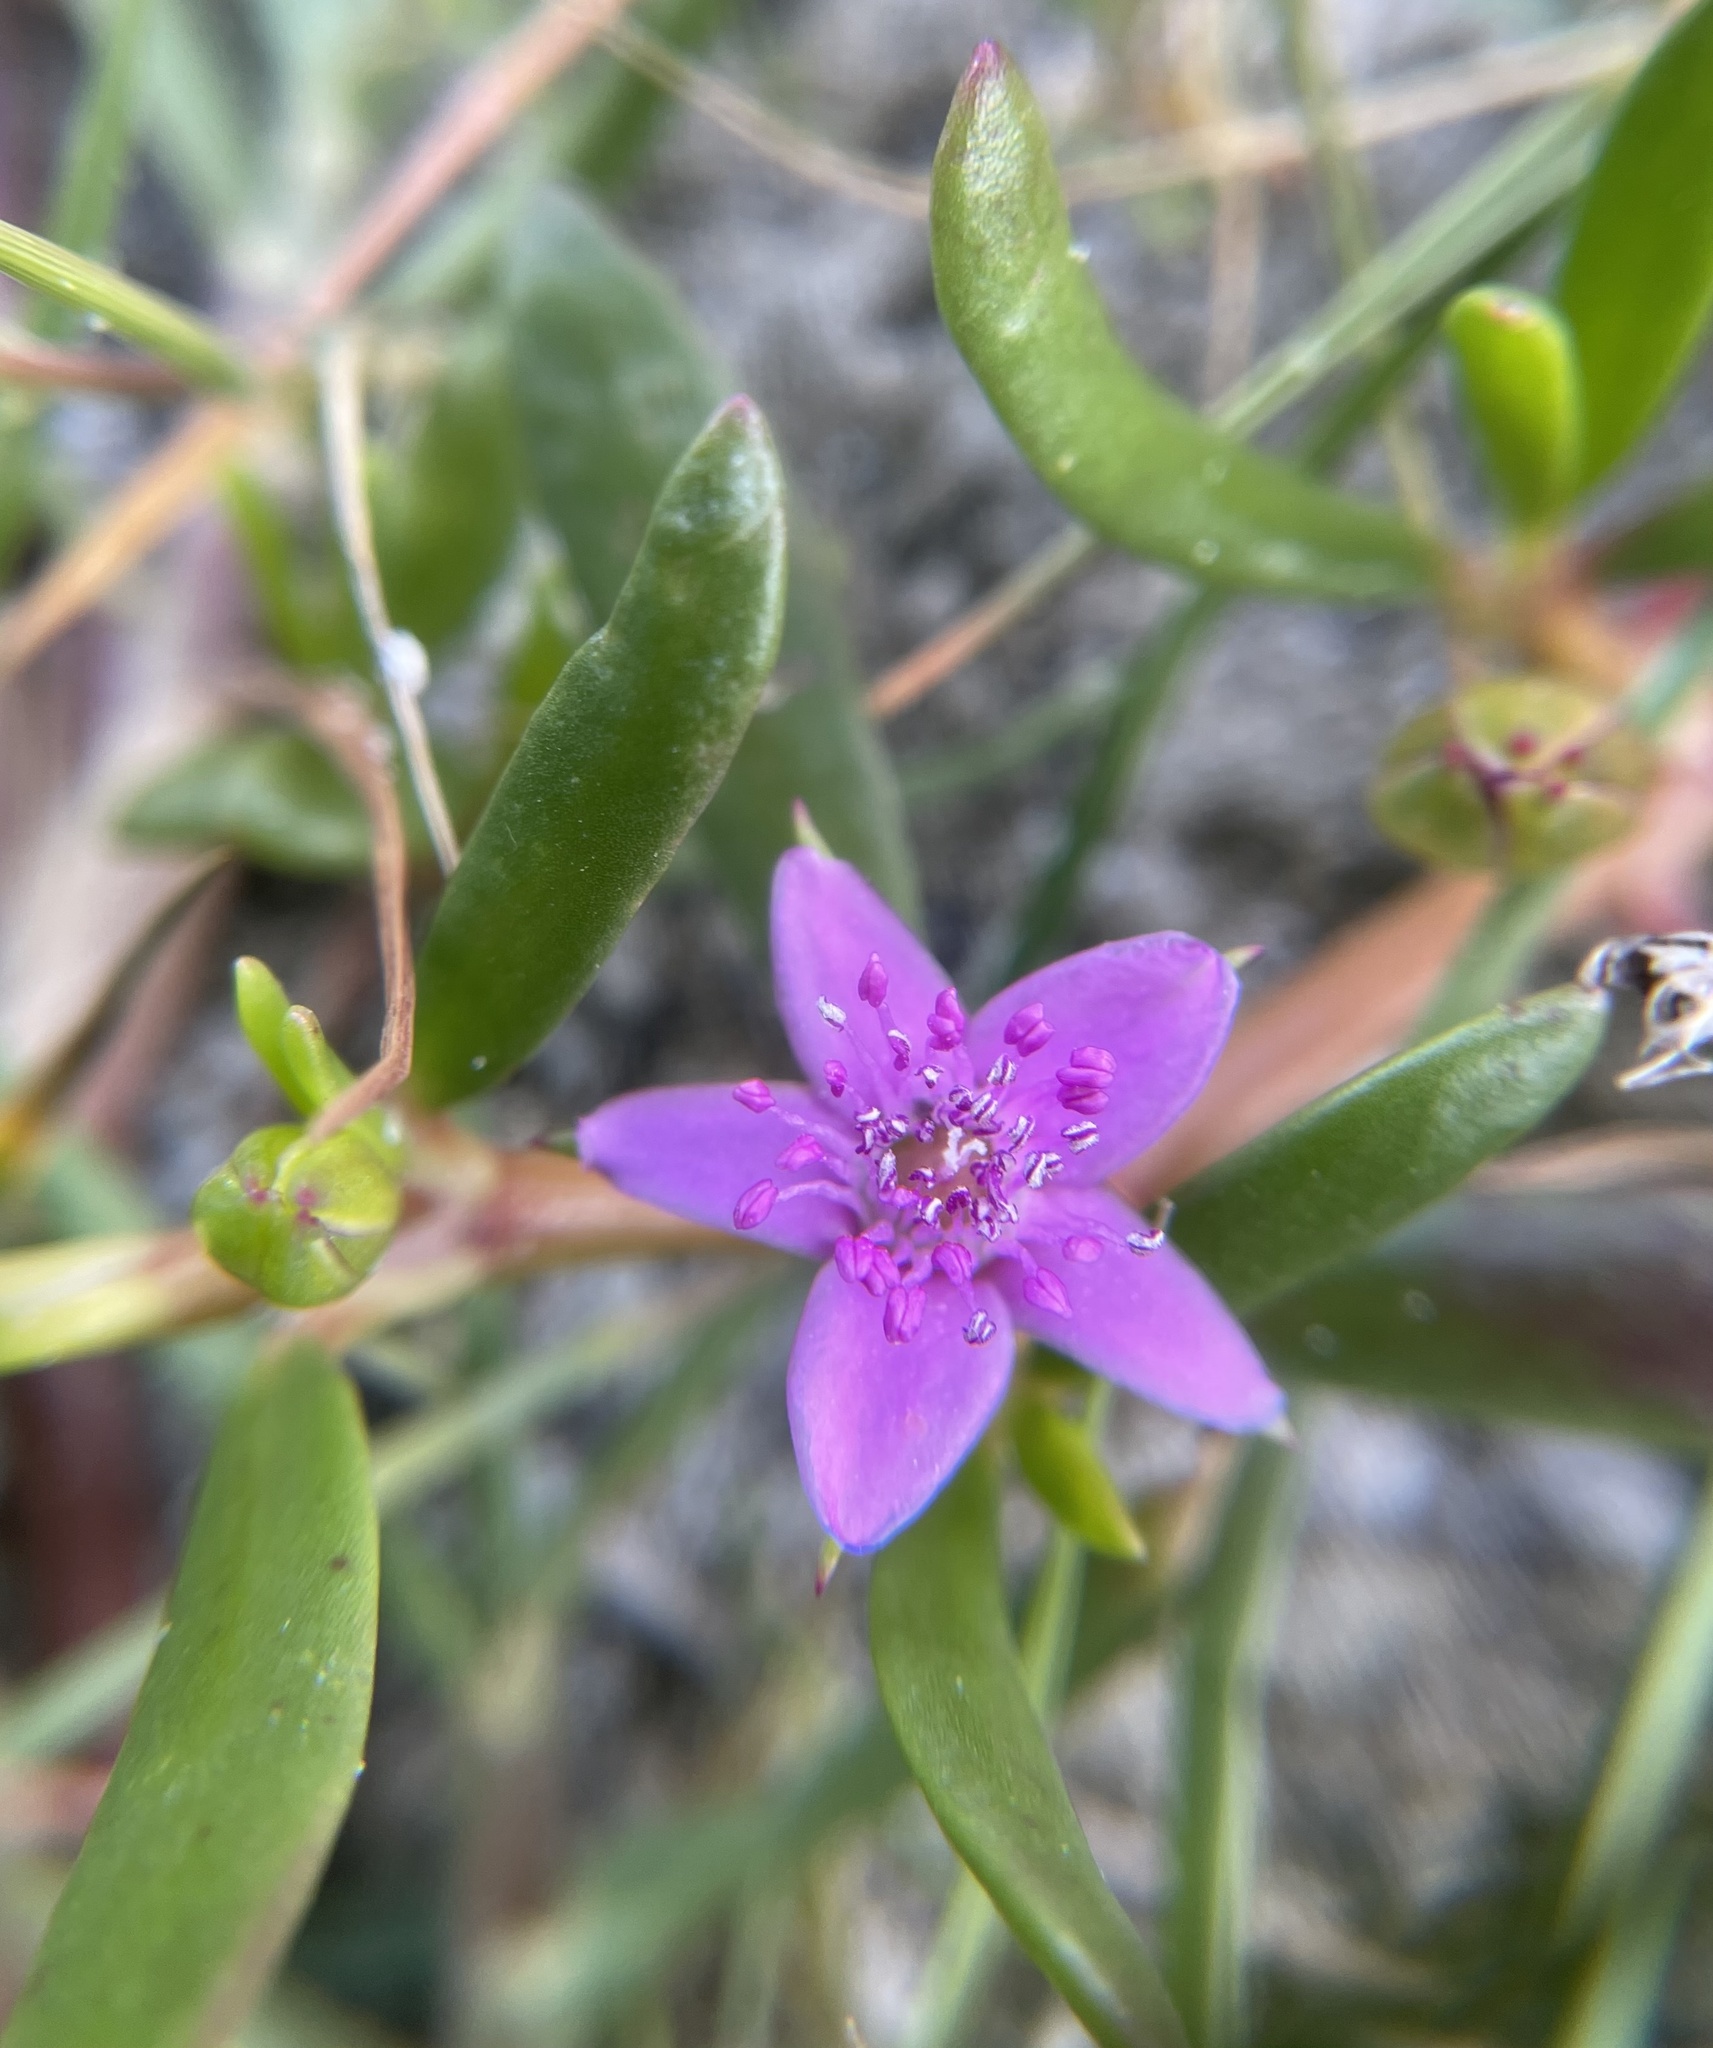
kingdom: Plantae
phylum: Tracheophyta
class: Magnoliopsida
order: Caryophyllales
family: Aizoaceae
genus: Sesuvium
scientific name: Sesuvium portulacastrum
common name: Sea-purslane
